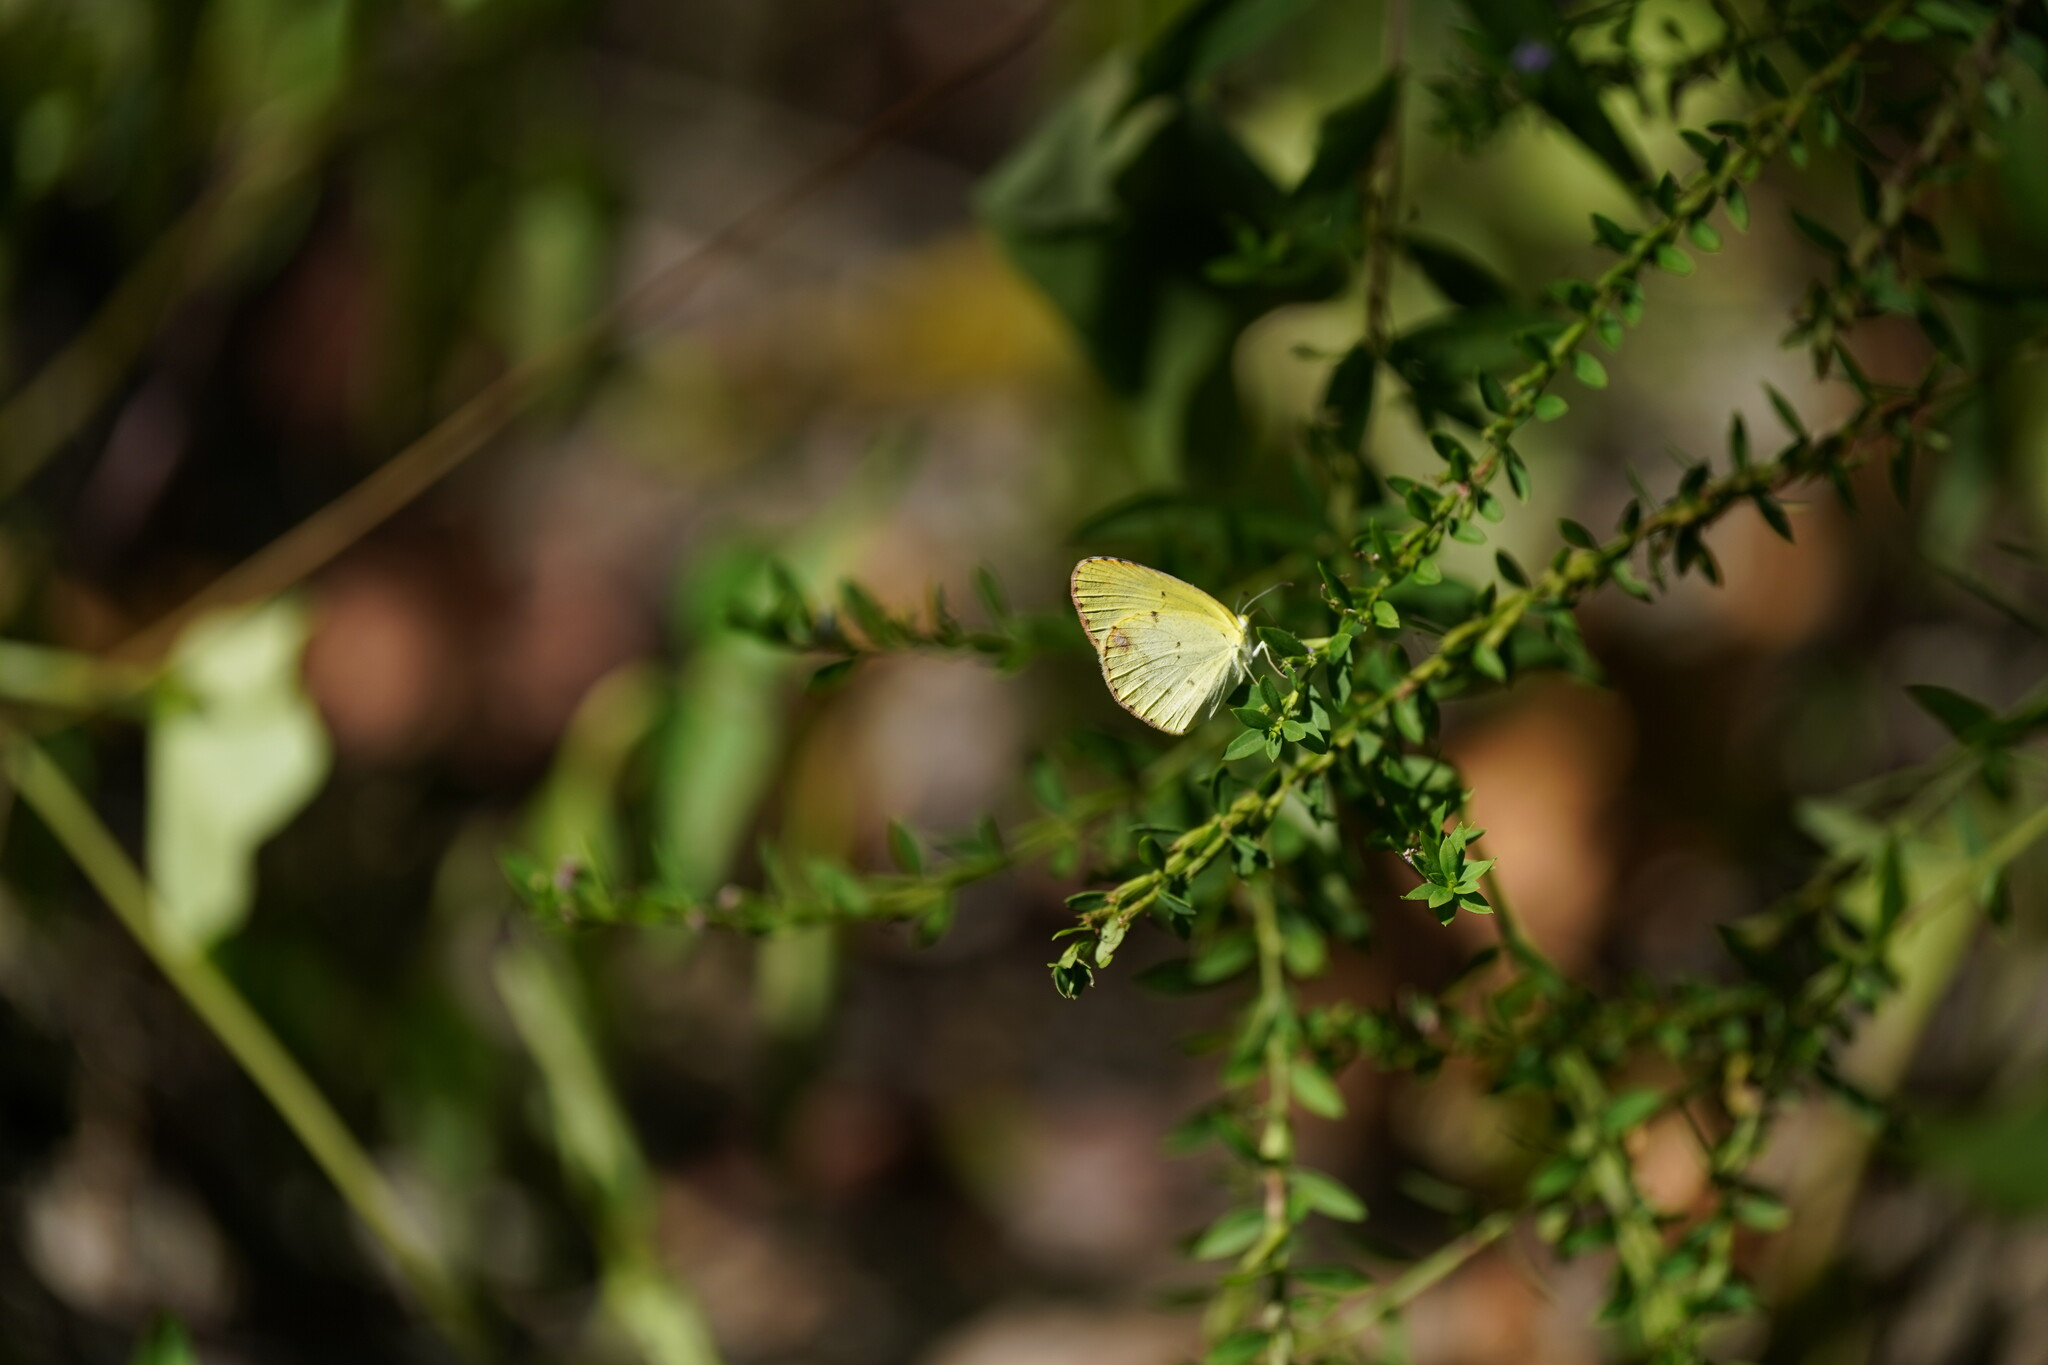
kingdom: Animalia
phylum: Arthropoda
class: Insecta
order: Lepidoptera
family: Pieridae
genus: Pyrisitia
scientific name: Pyrisitia lisa
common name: Little yellow
